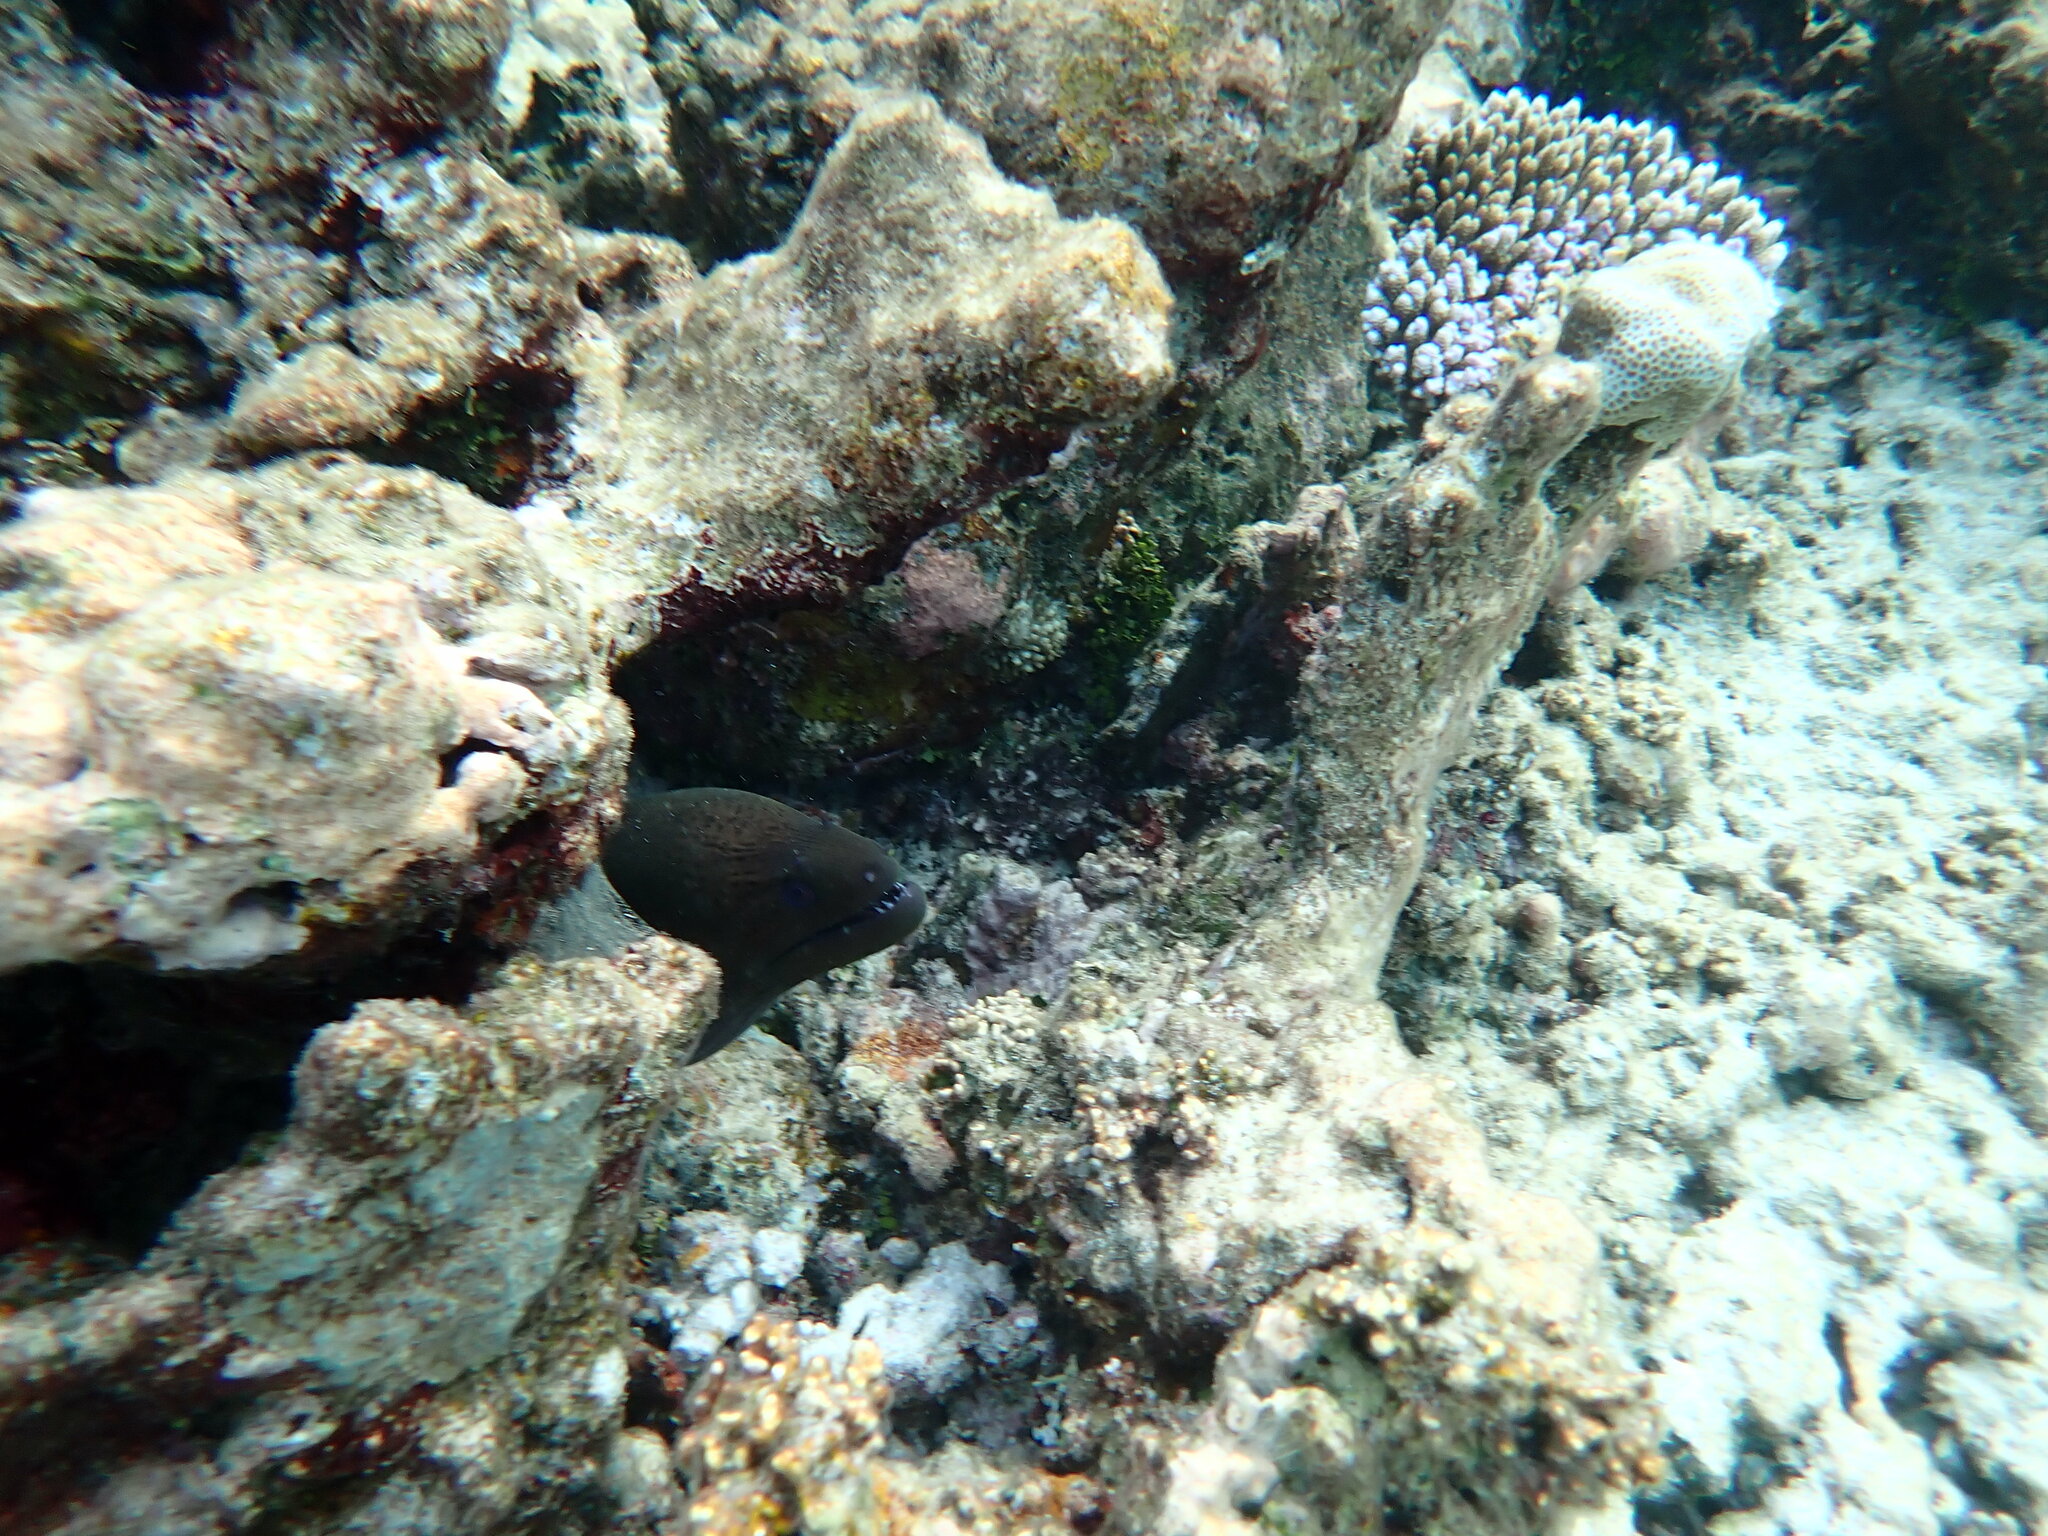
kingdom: Animalia
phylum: Chordata
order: Anguilliformes
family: Muraenidae
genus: Gymnothorax
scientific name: Gymnothorax javanicus
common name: Giant moray
